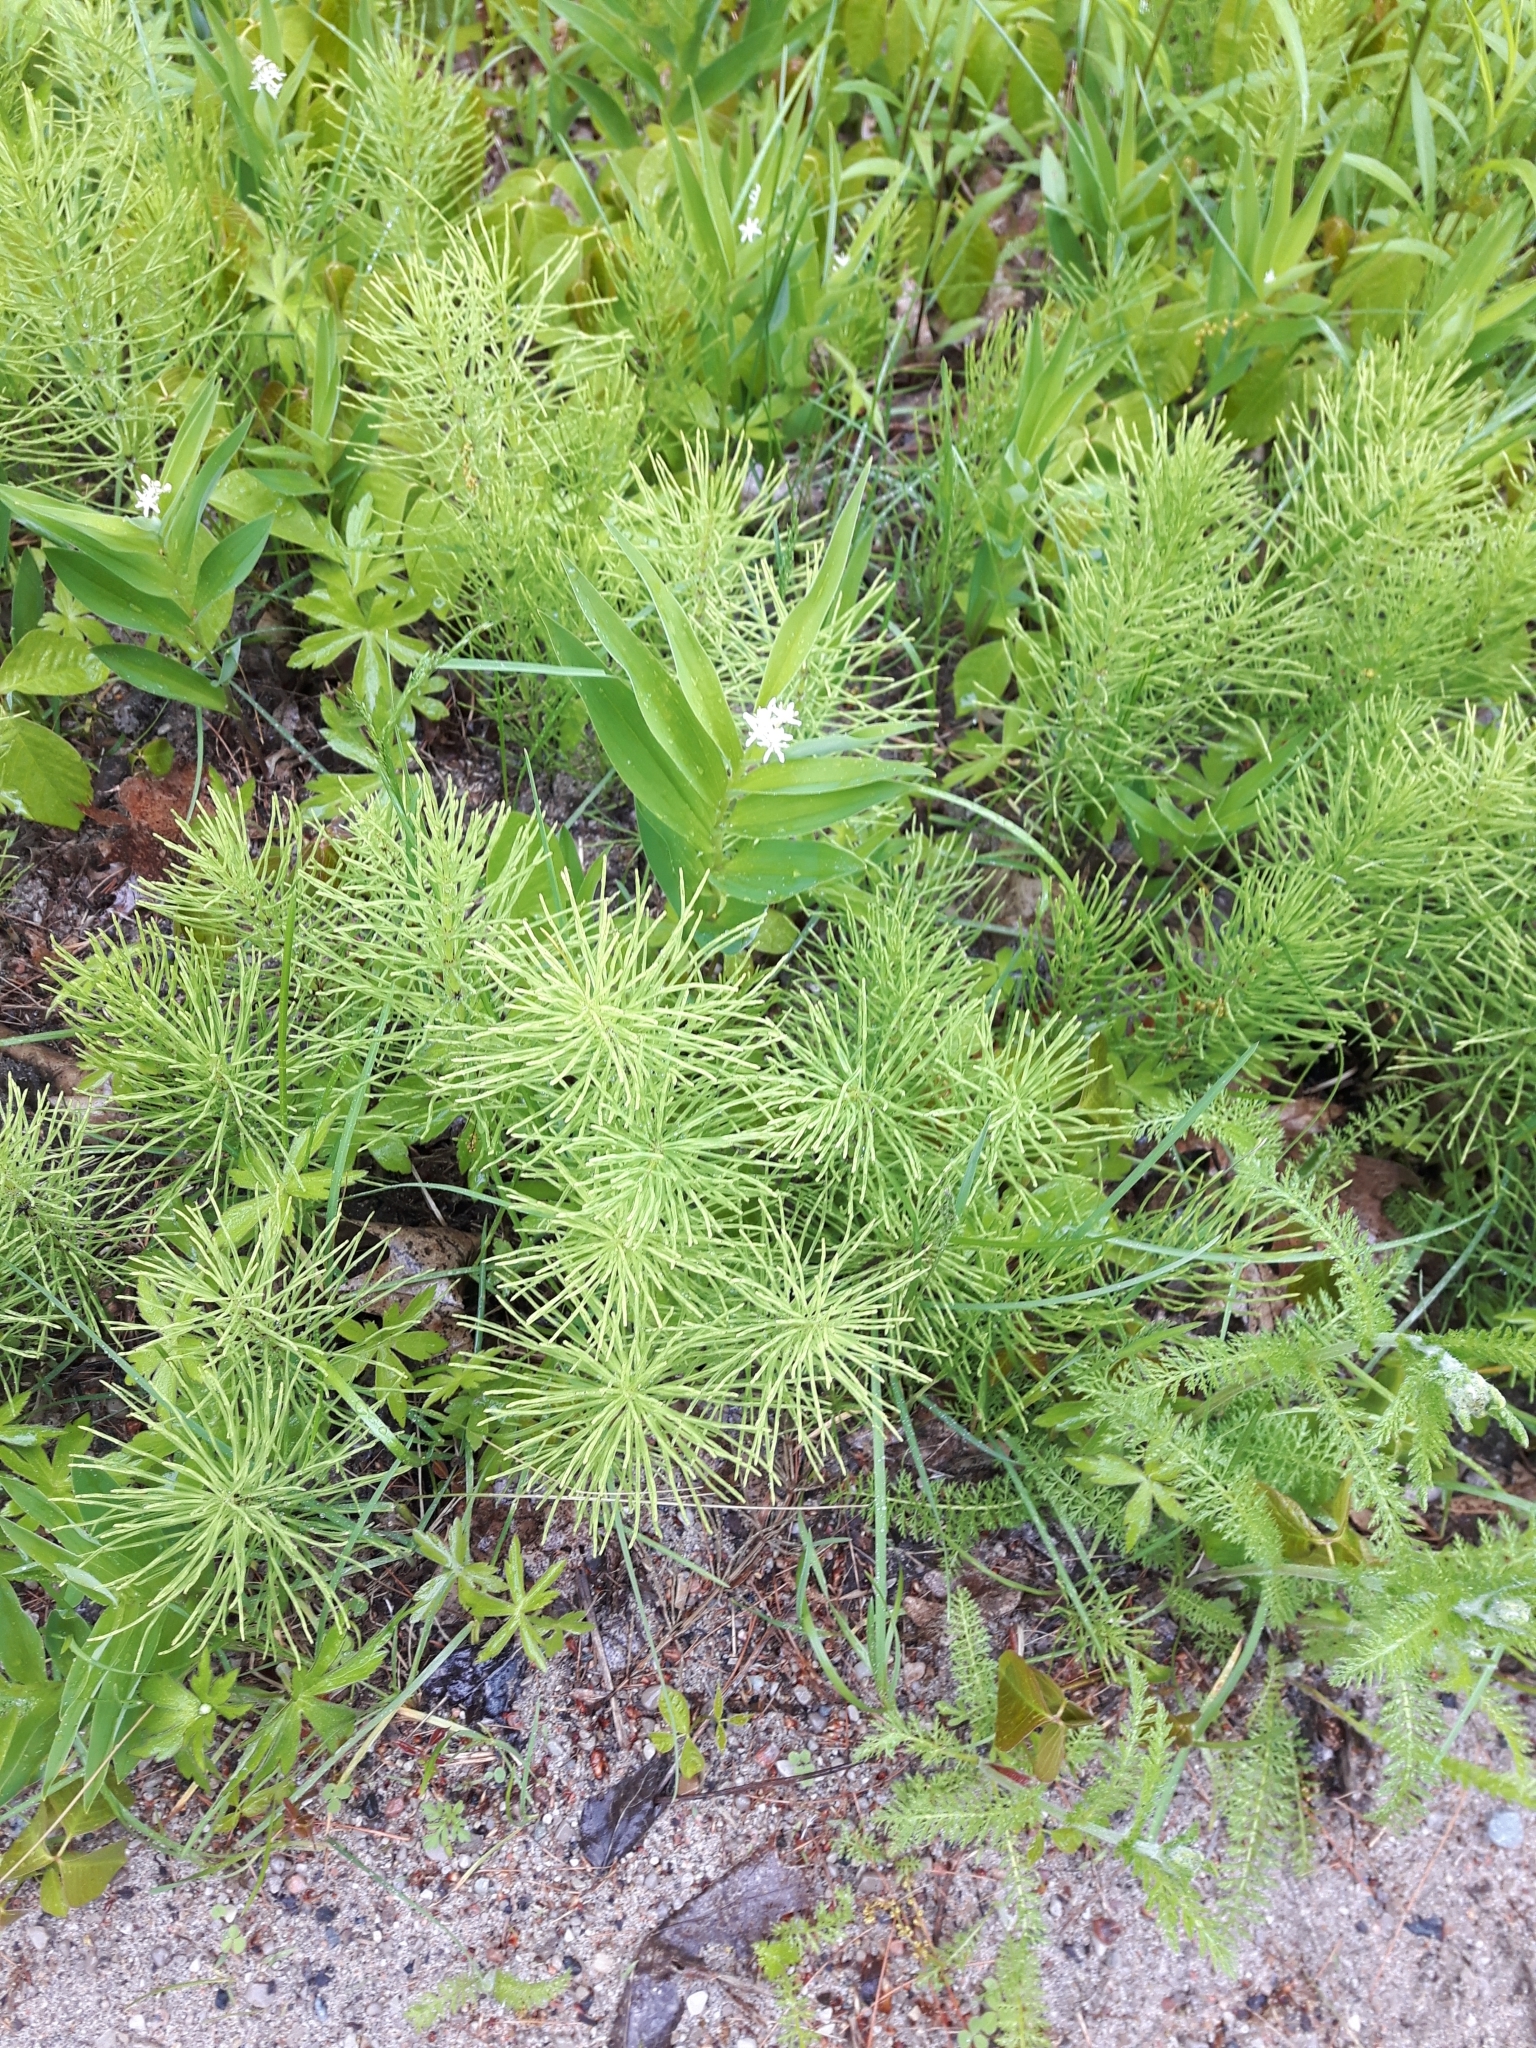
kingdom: Plantae
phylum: Tracheophyta
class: Polypodiopsida
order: Equisetales
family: Equisetaceae
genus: Equisetum
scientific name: Equisetum arvense
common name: Field horsetail
